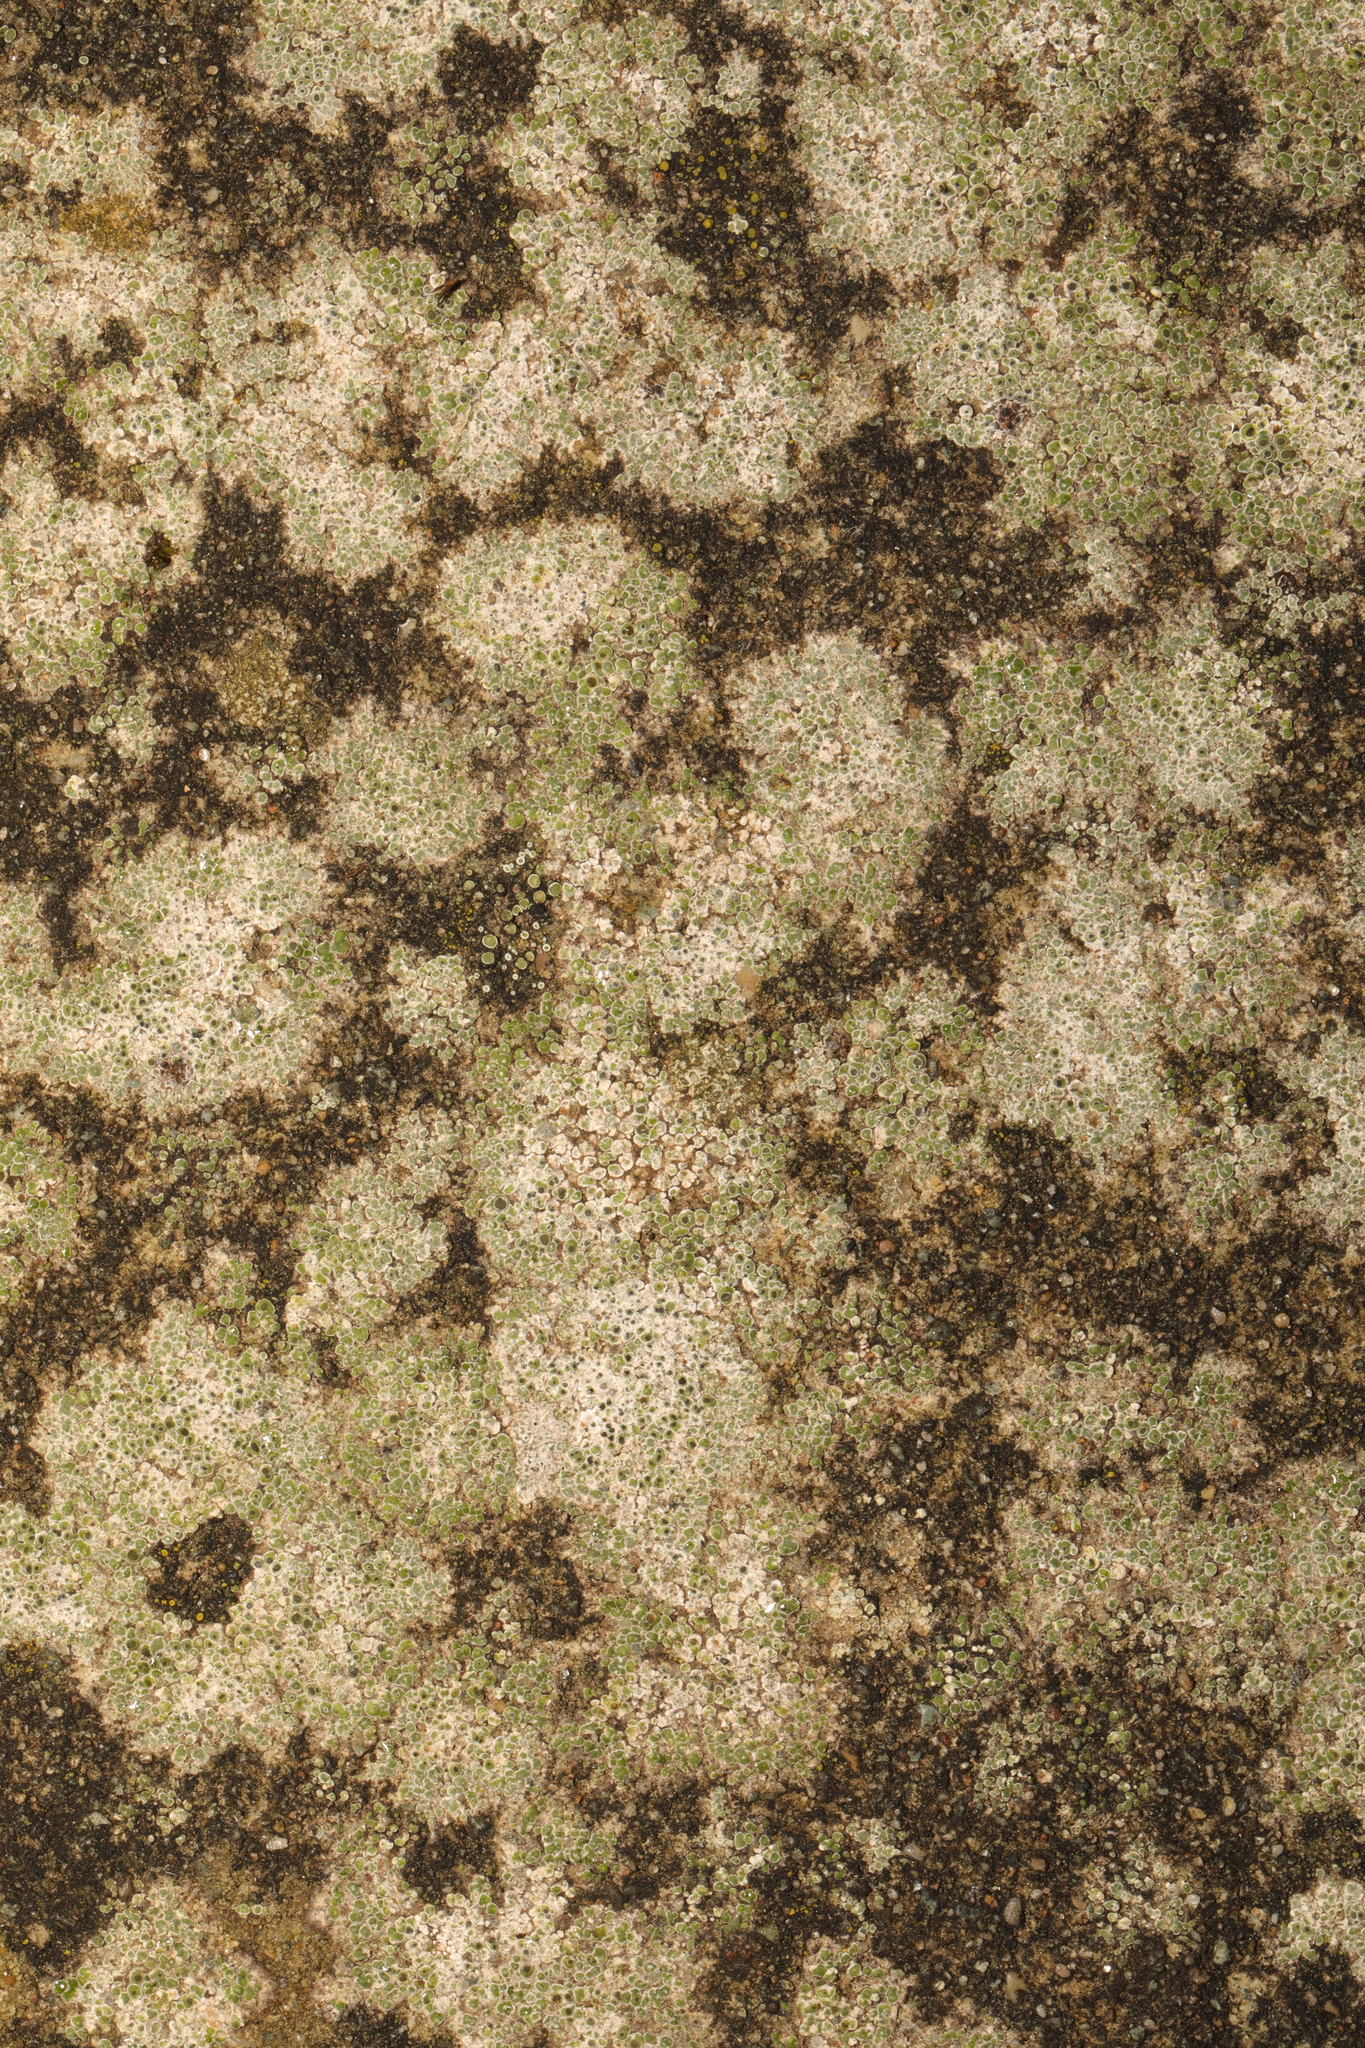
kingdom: Fungi
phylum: Ascomycota
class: Lecanoromycetes
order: Pertusariales
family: Megasporaceae
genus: Circinaria
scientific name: Circinaria contorta
